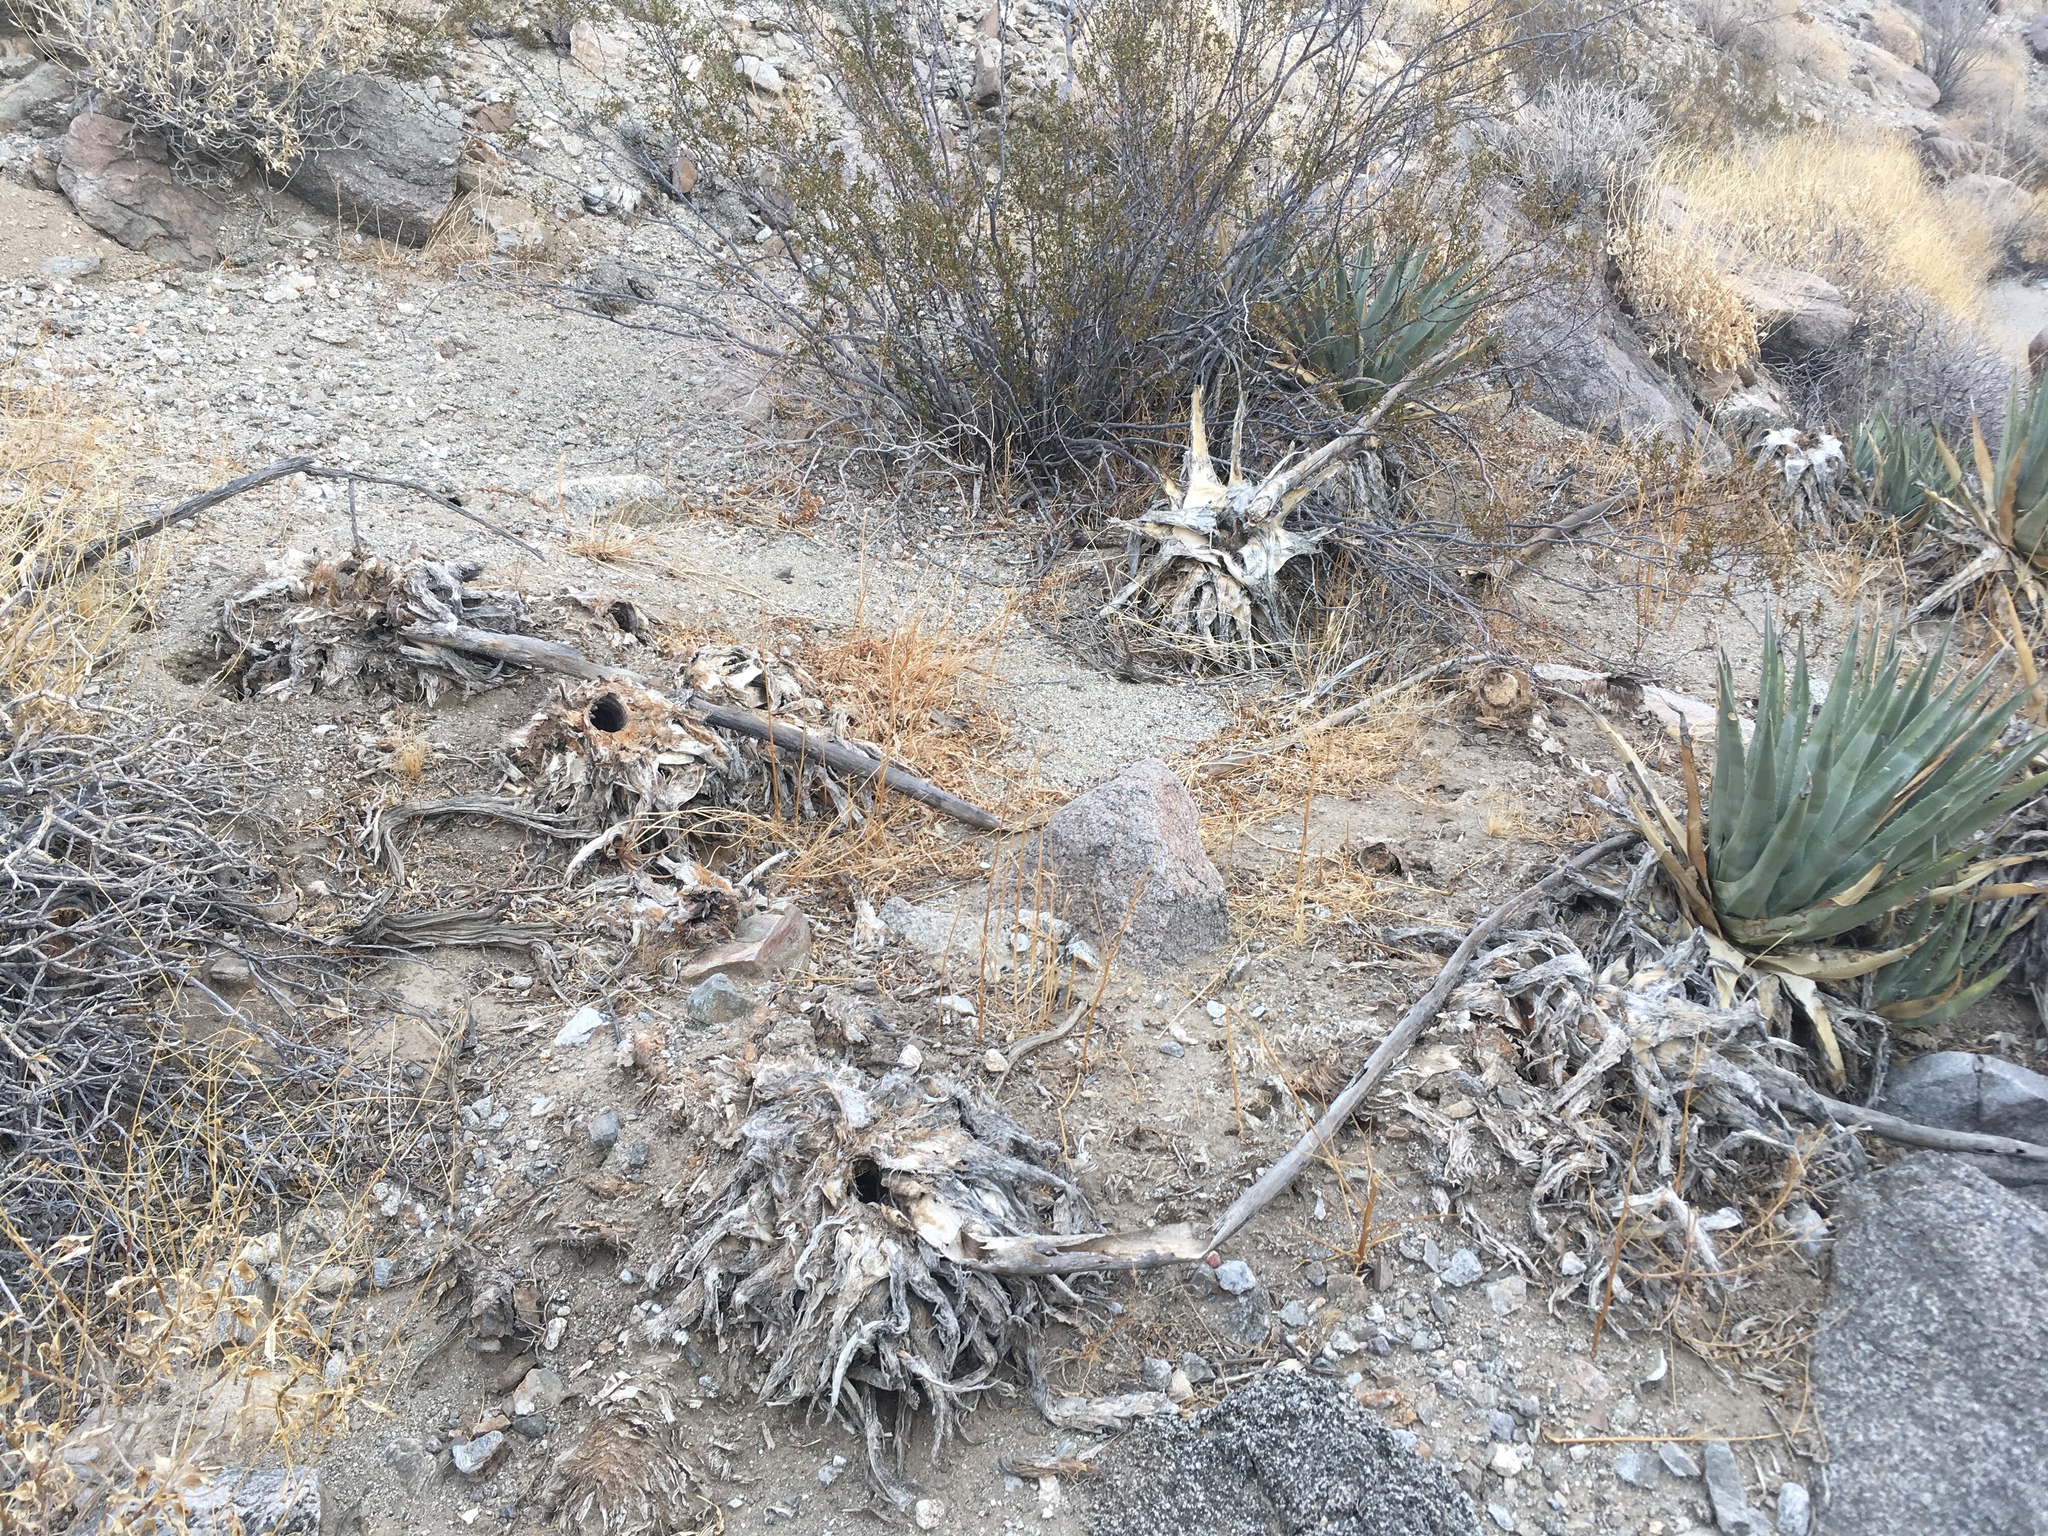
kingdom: Plantae
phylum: Tracheophyta
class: Liliopsida
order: Asparagales
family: Asparagaceae
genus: Agave
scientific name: Agave deserti
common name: Desert agave
